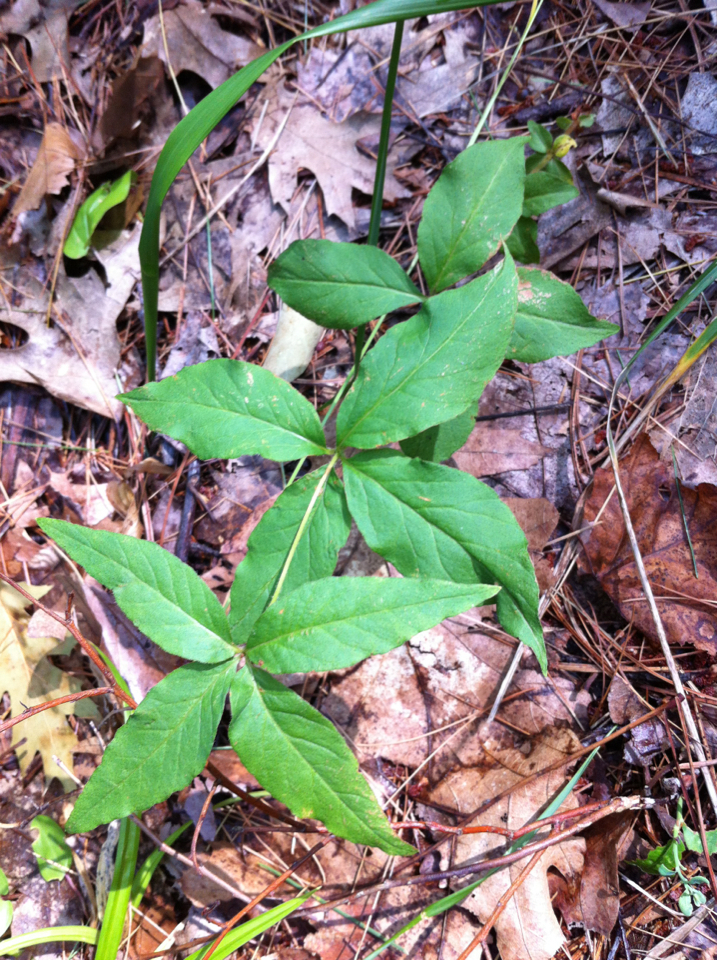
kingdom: Plantae
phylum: Tracheophyta
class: Magnoliopsida
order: Ericales
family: Primulaceae
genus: Lysimachia
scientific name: Lysimachia quadrifolia
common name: Whorled loosestrife
